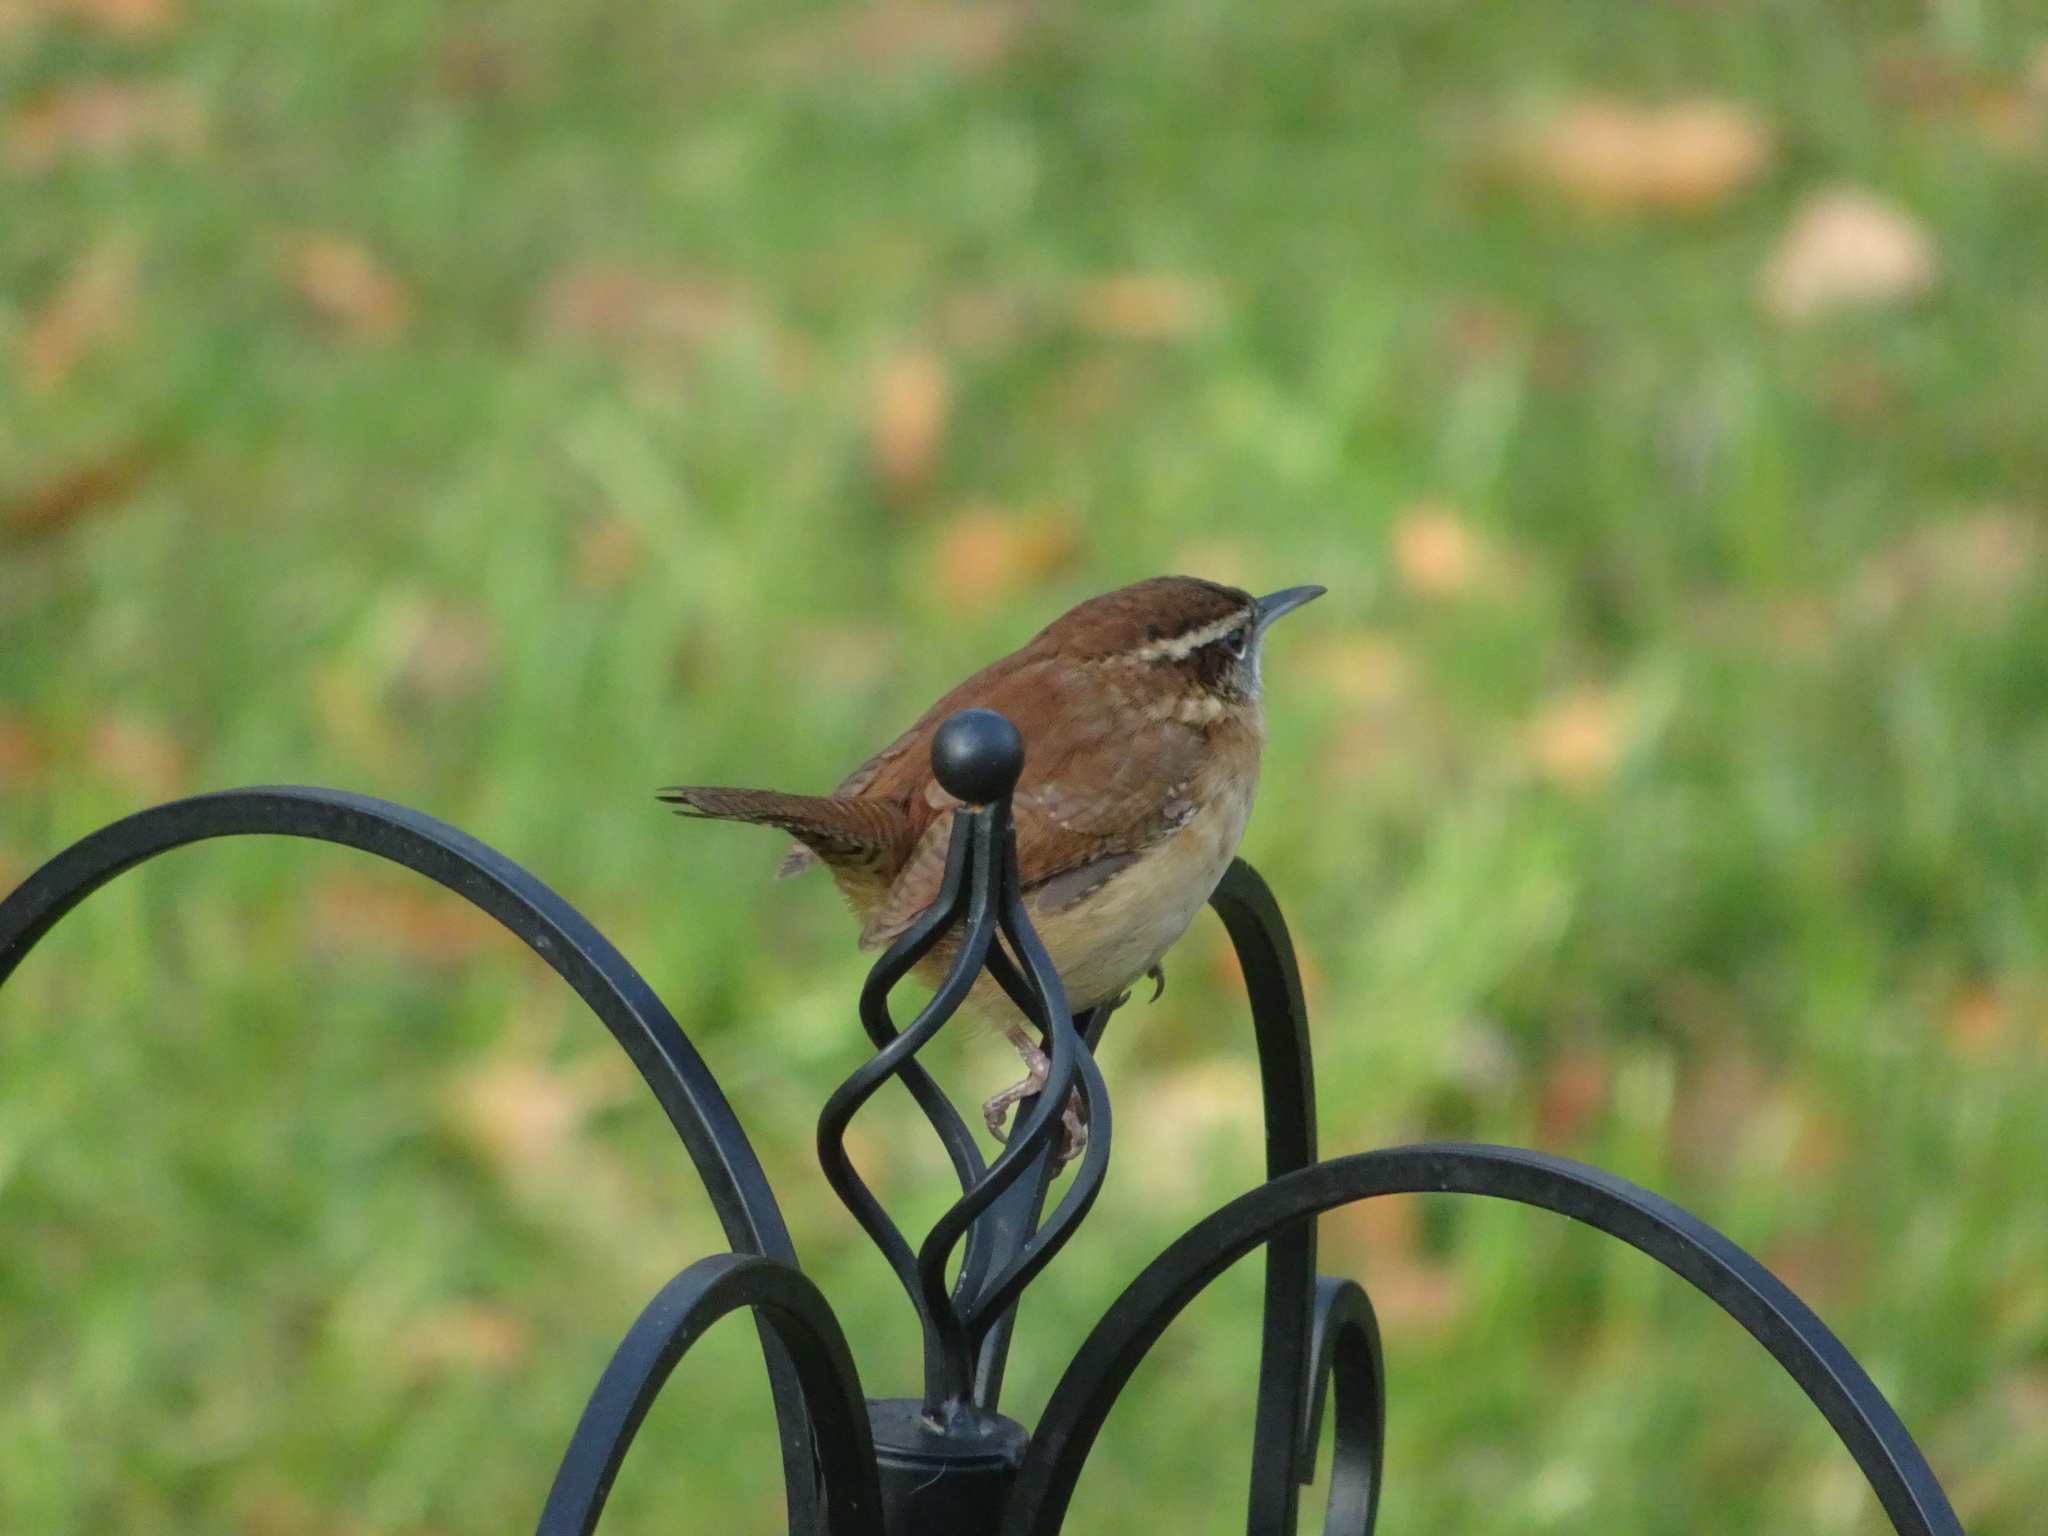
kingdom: Animalia
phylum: Chordata
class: Aves
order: Passeriformes
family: Troglodytidae
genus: Thryothorus
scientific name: Thryothorus ludovicianus
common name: Carolina wren
